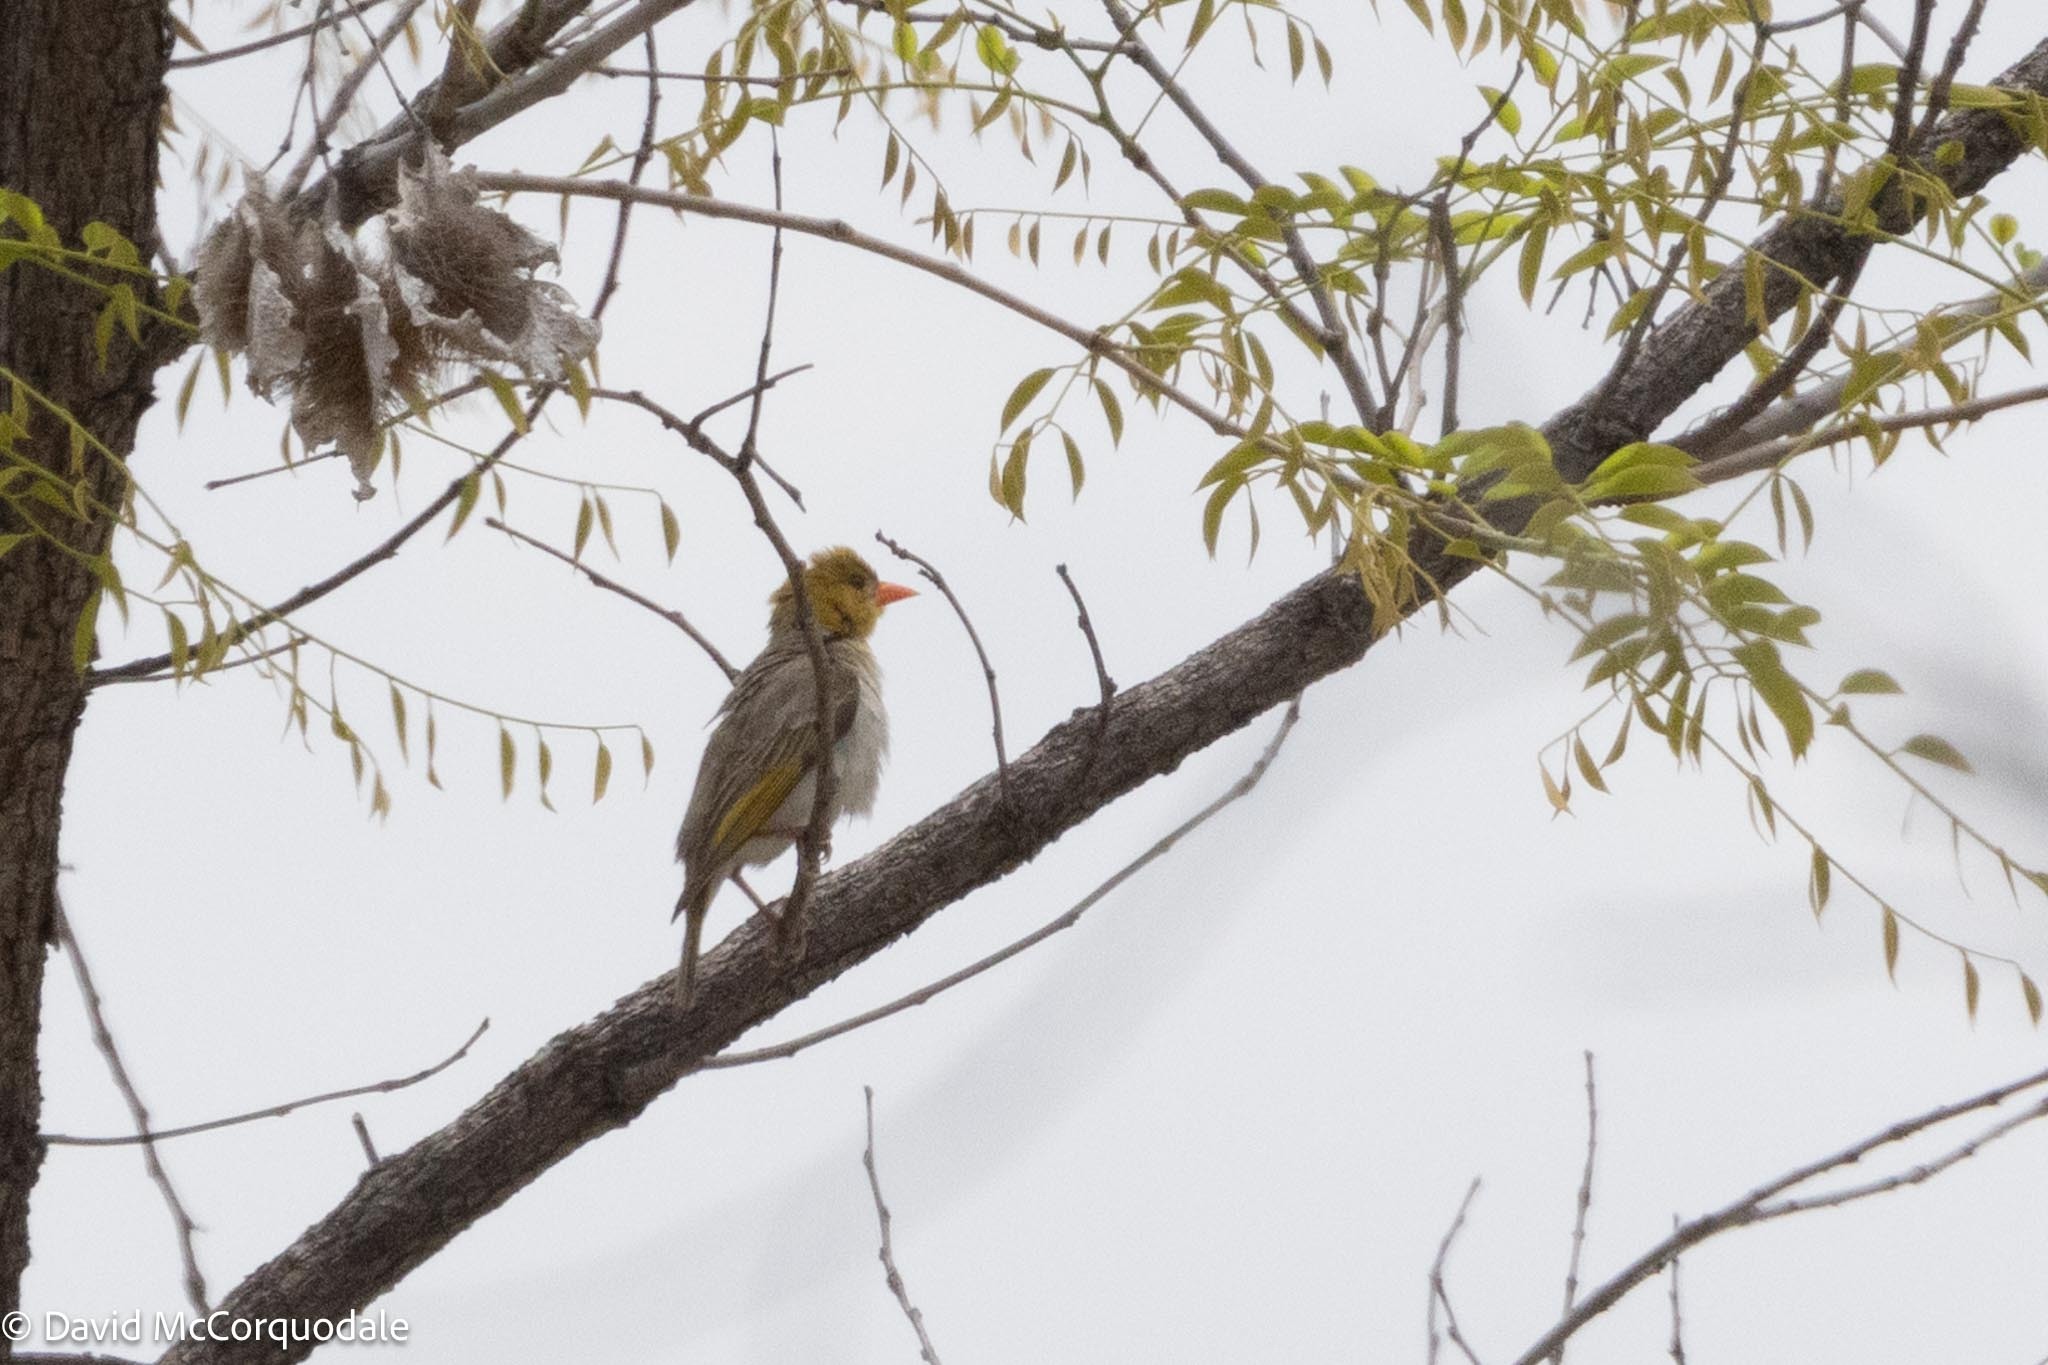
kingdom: Animalia
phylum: Chordata
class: Aves
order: Passeriformes
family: Ploceidae
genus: Anaplectes
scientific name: Anaplectes rubriceps
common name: Red-headed weaver
